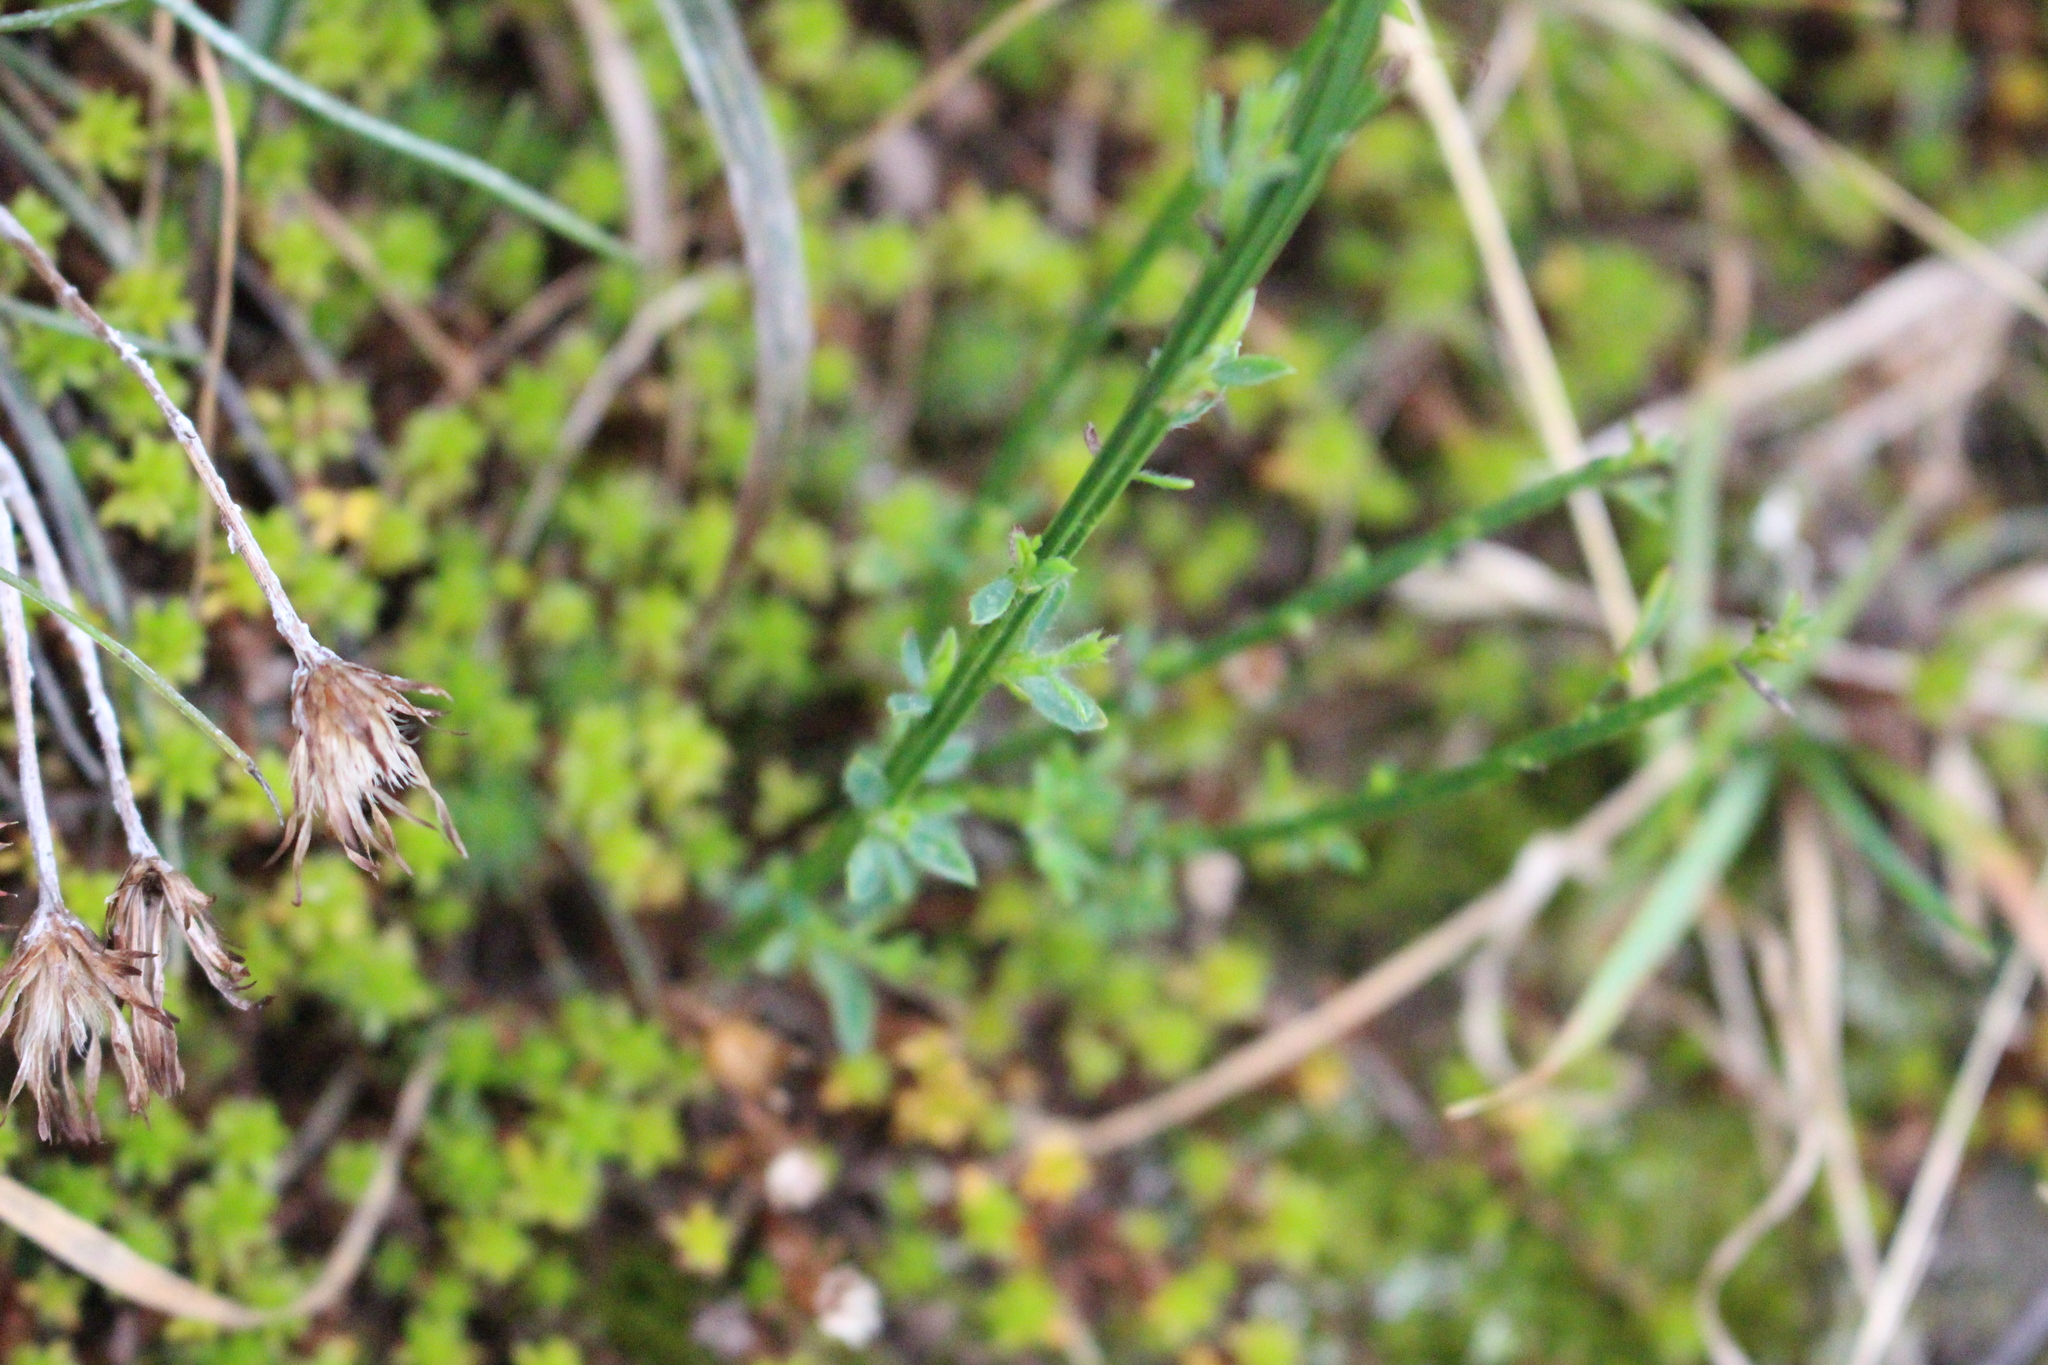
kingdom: Plantae
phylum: Tracheophyta
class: Magnoliopsida
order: Fabales
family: Fabaceae
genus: Cytisus
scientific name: Cytisus scoparius
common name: Scotch broom
